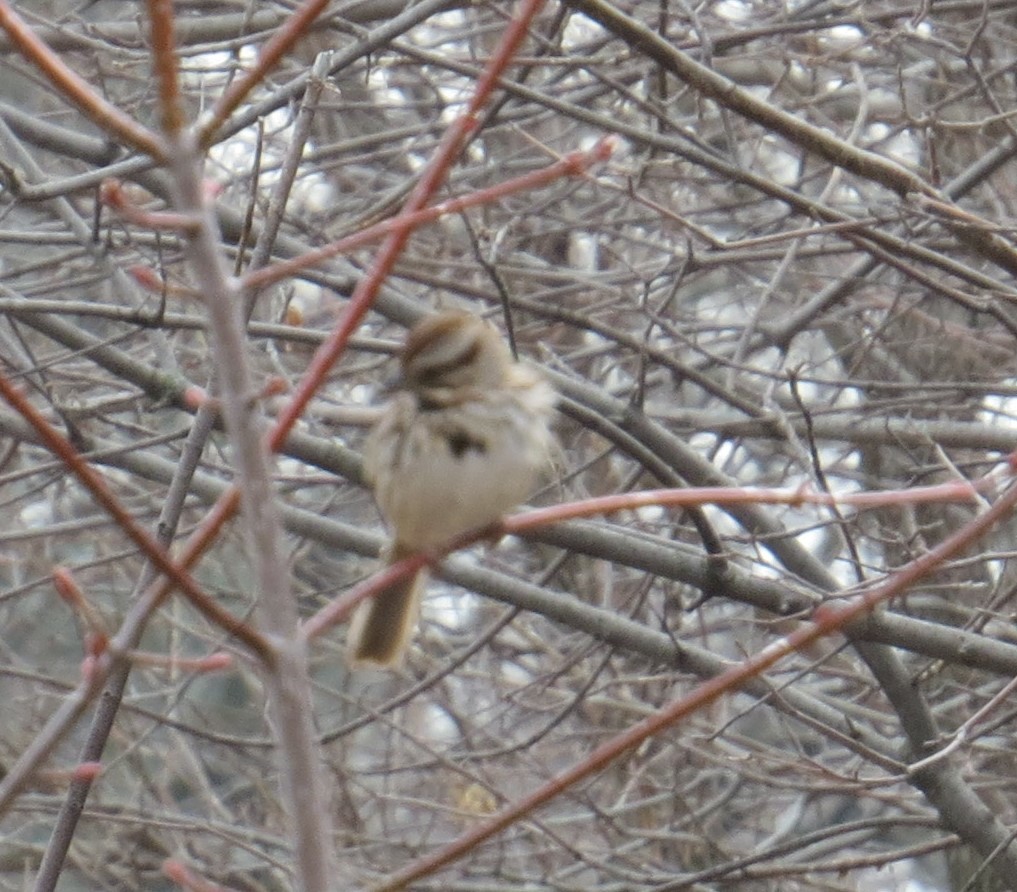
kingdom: Animalia
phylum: Chordata
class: Aves
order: Passeriformes
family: Passerellidae
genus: Melospiza
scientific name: Melospiza melodia
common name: Song sparrow
